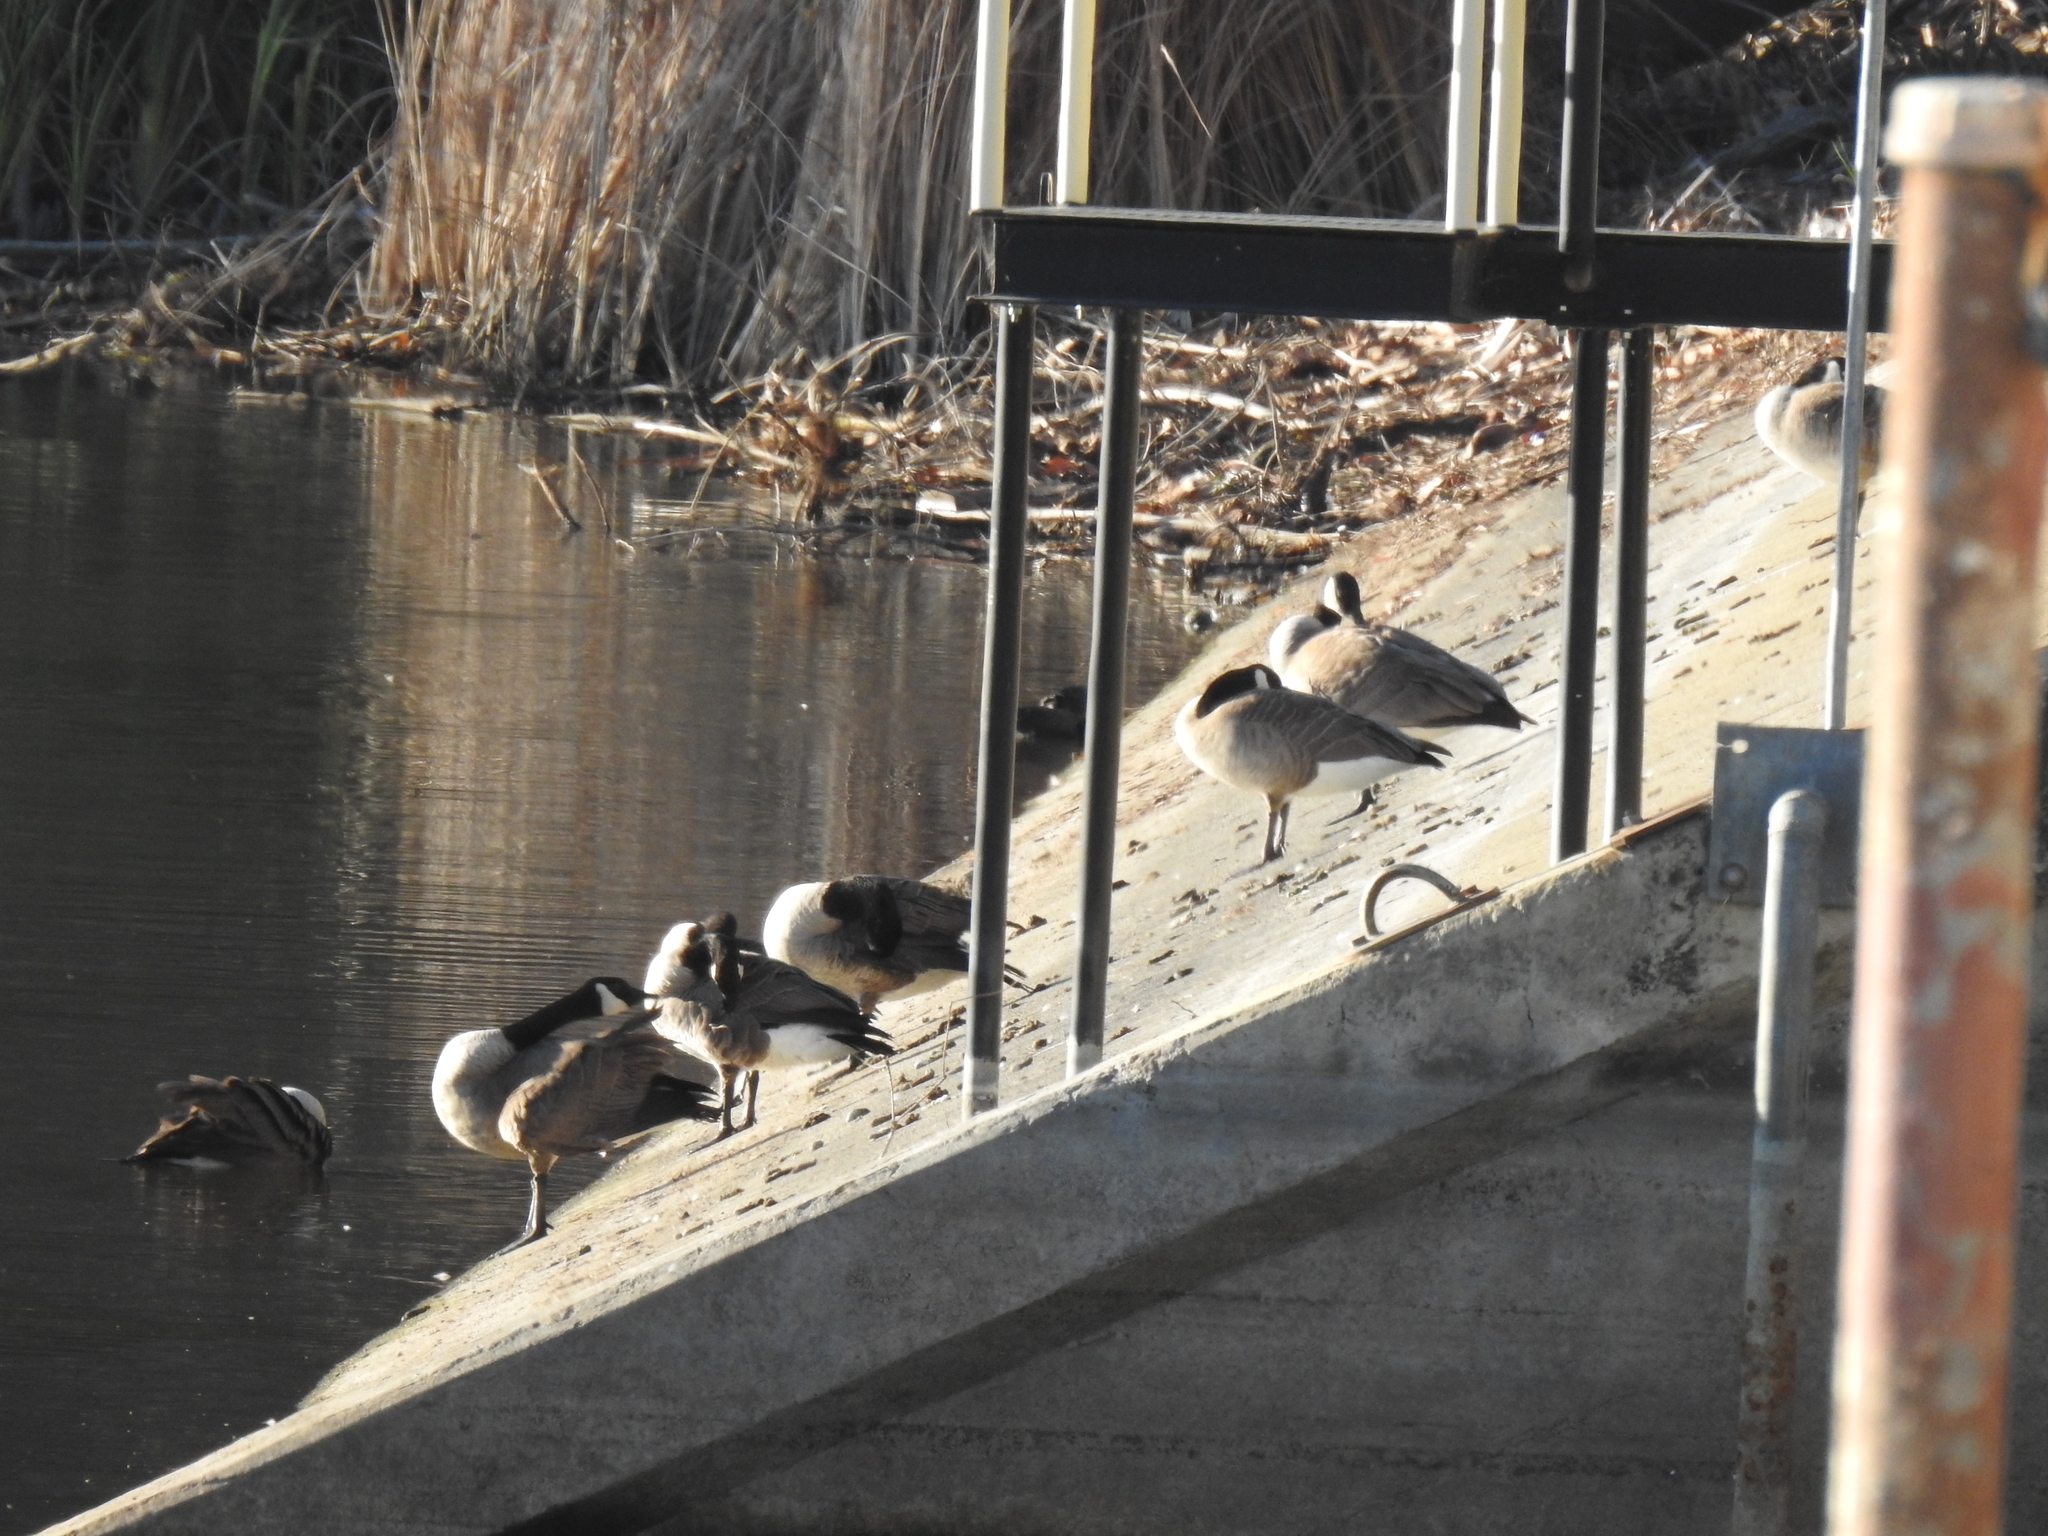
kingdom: Animalia
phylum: Chordata
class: Aves
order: Anseriformes
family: Anatidae
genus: Branta
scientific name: Branta canadensis
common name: Canada goose
